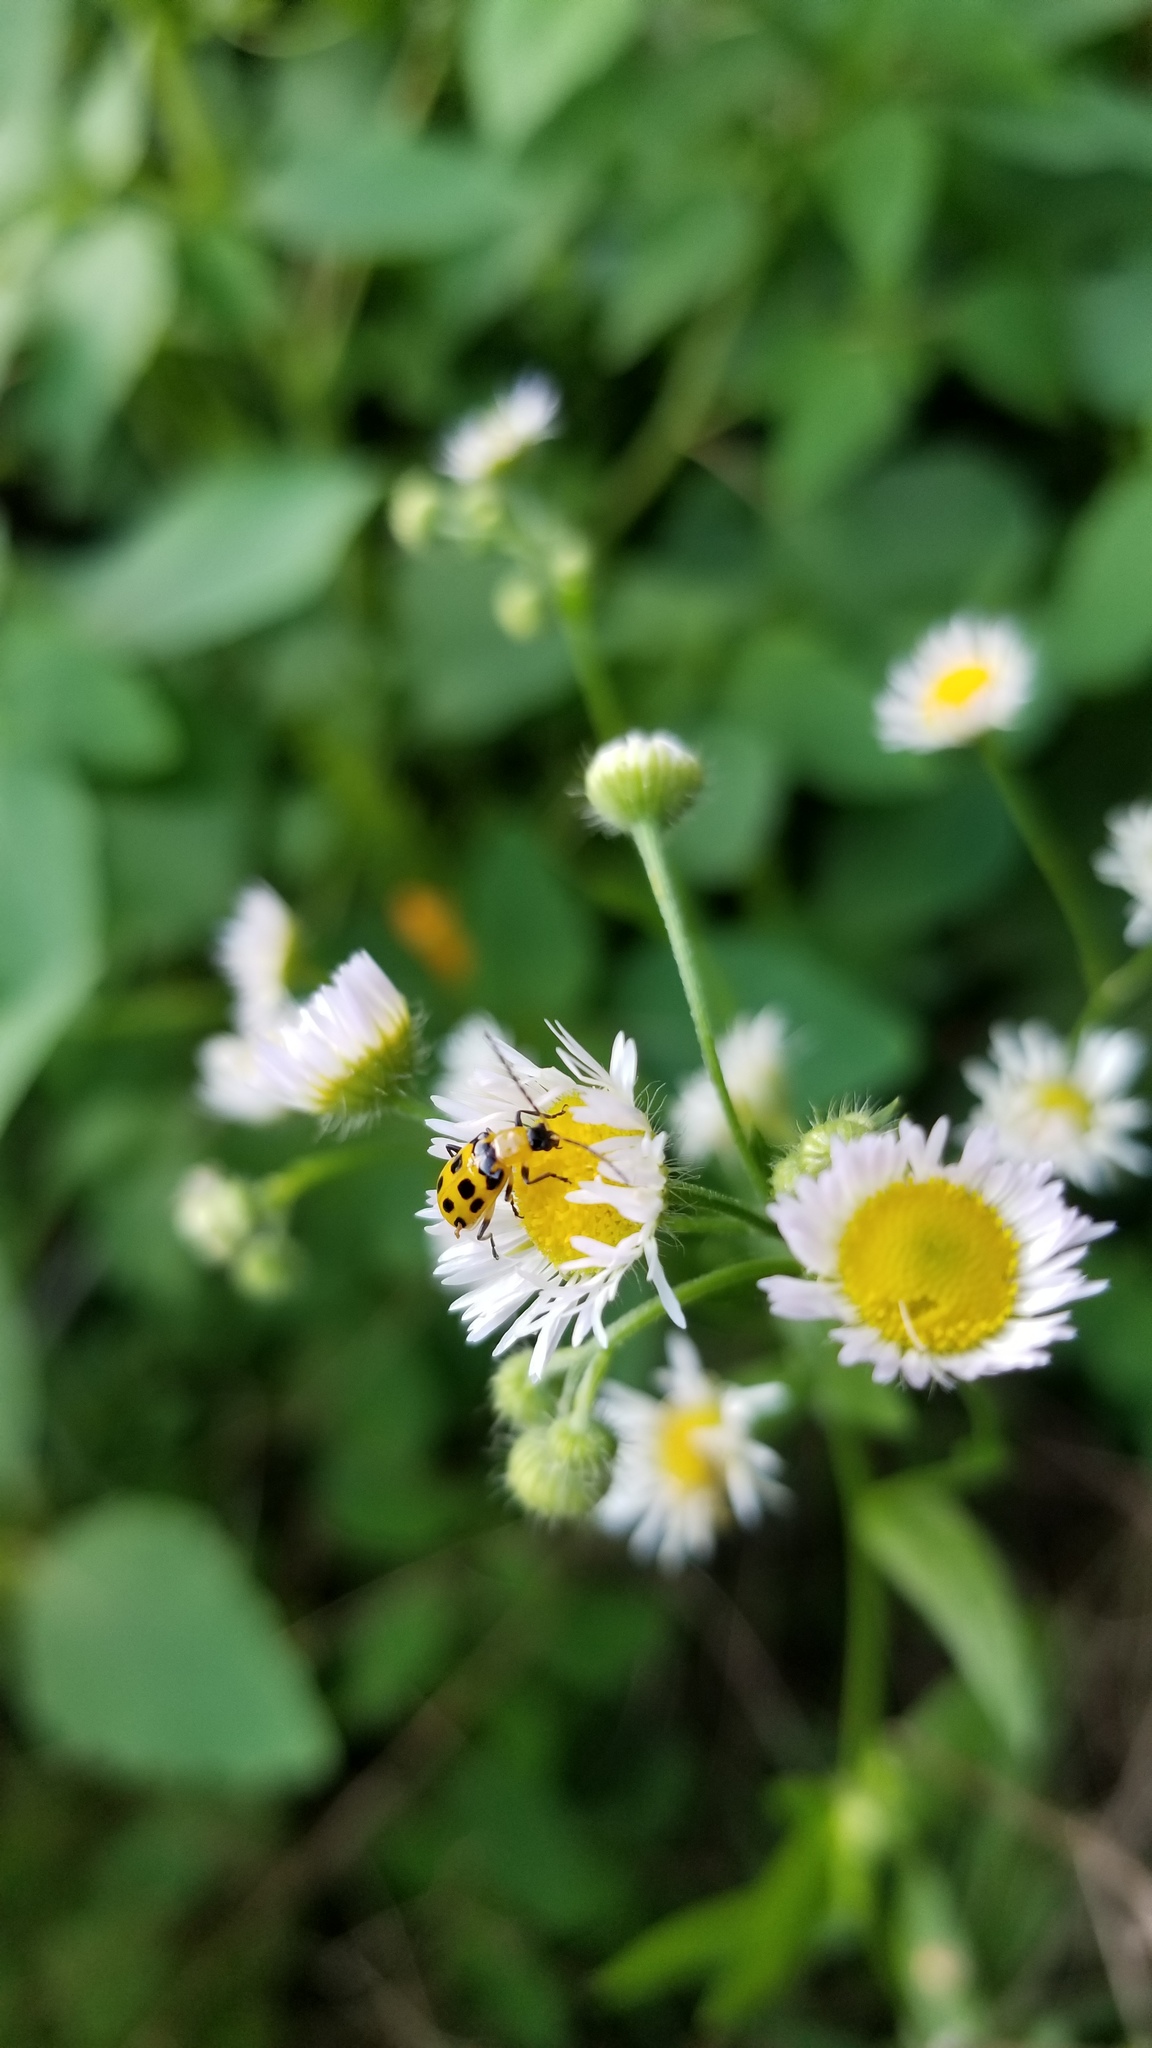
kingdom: Animalia
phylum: Arthropoda
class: Insecta
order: Coleoptera
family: Chrysomelidae
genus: Diabrotica
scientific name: Diabrotica undecimpunctata
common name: Spotted cucumber beetle
